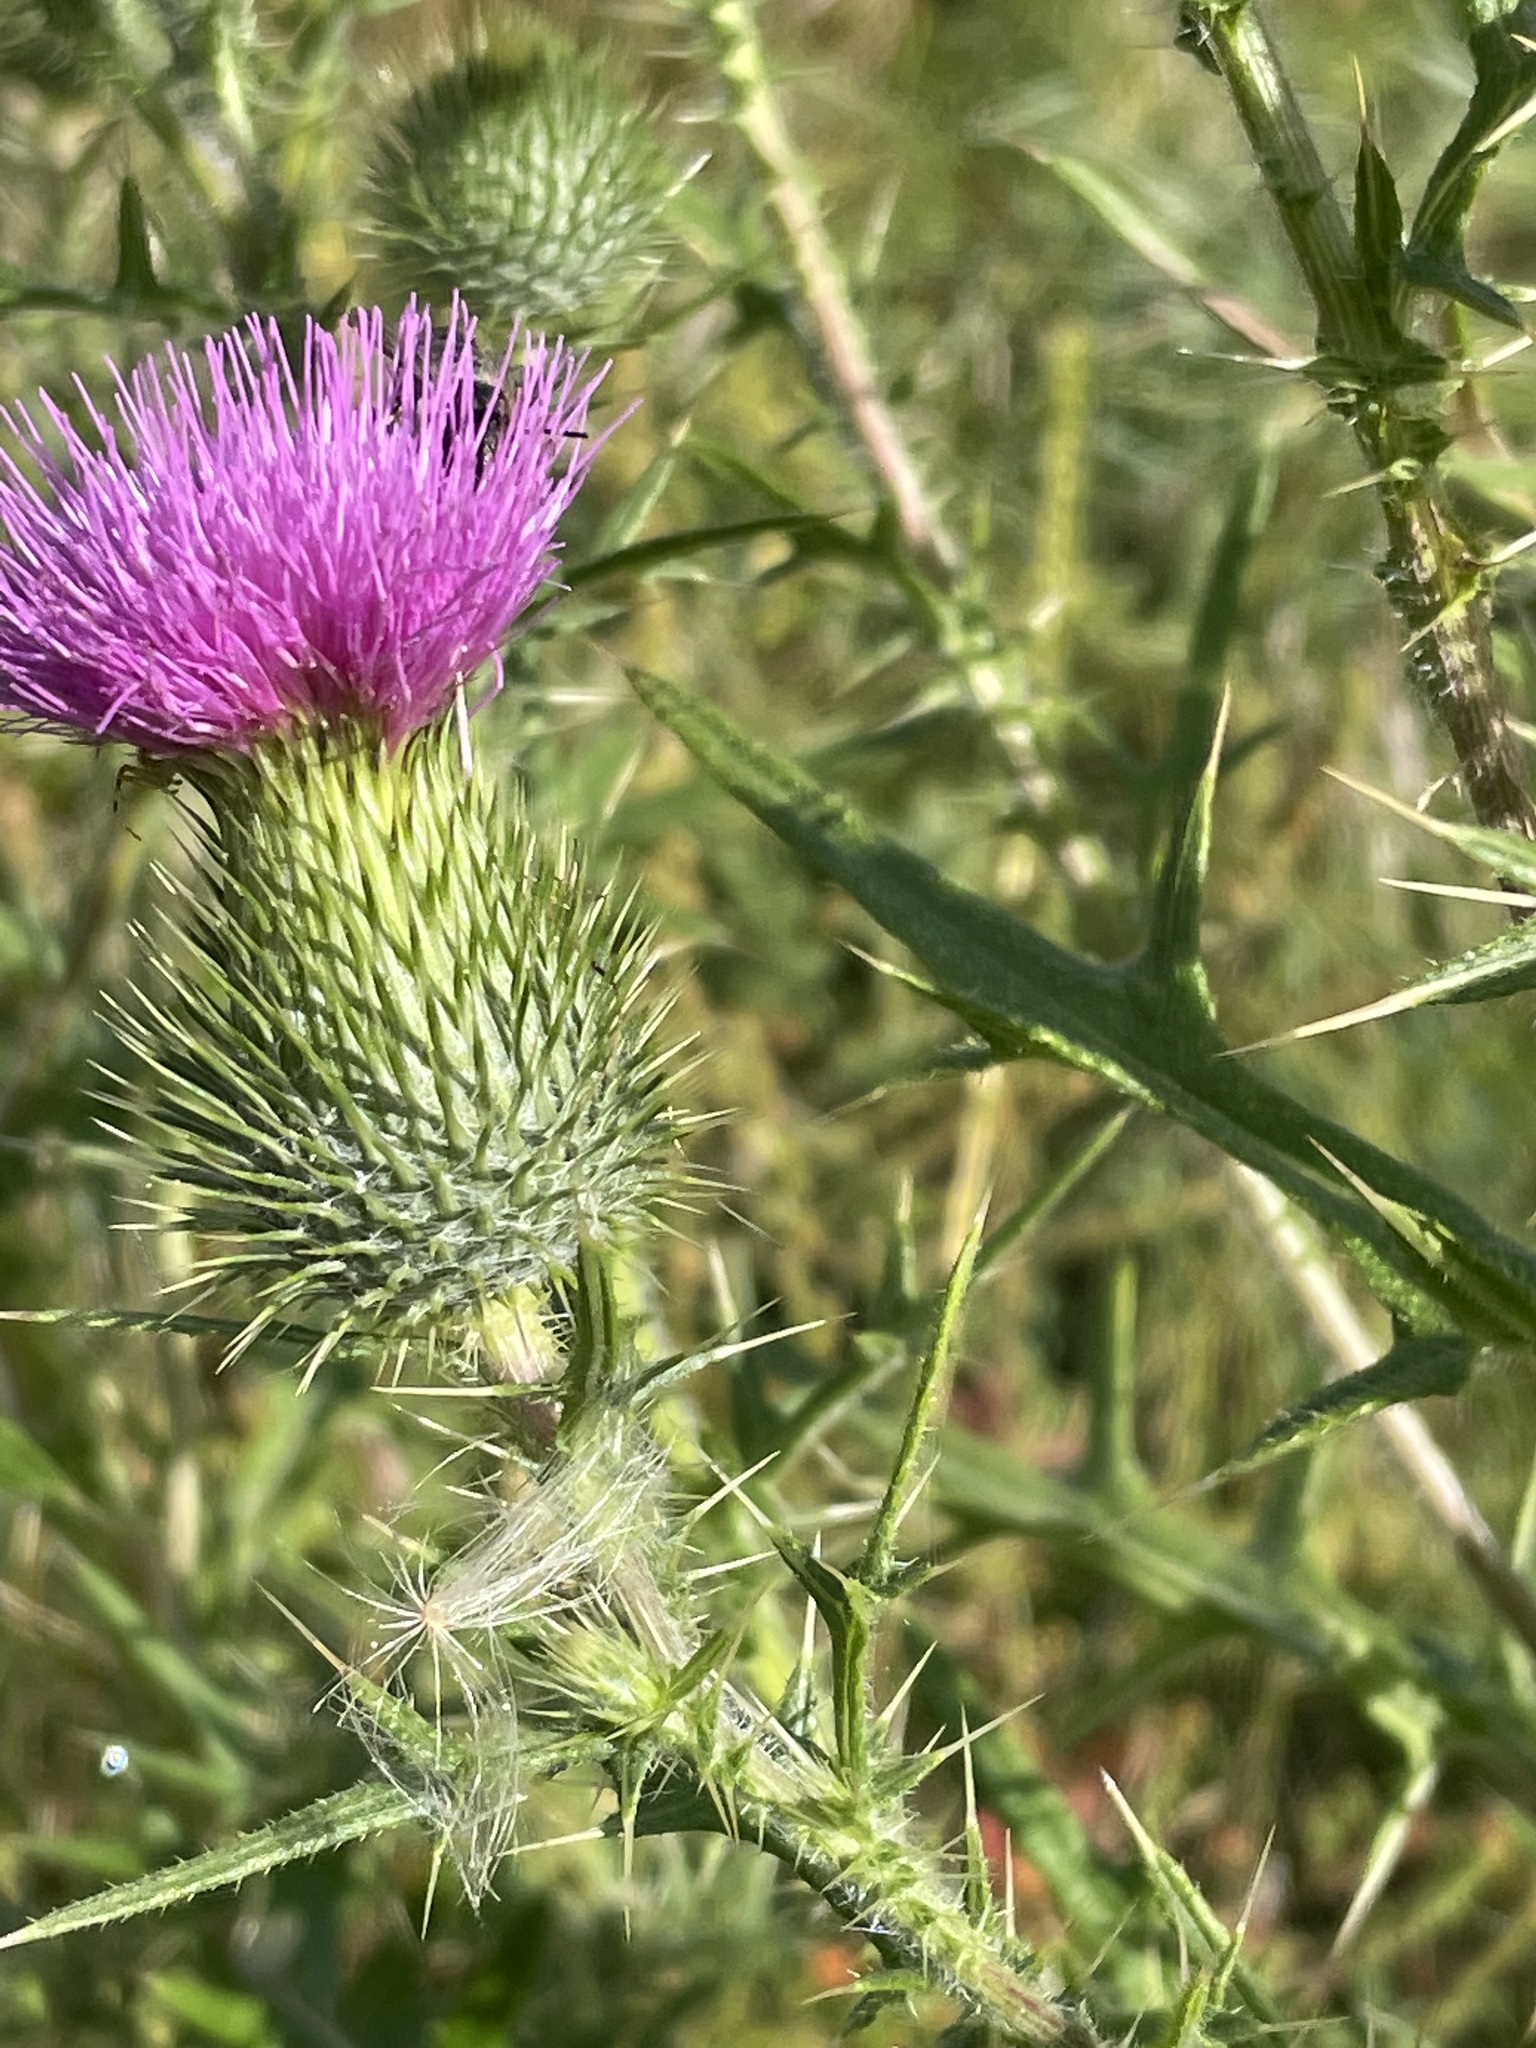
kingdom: Plantae
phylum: Tracheophyta
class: Magnoliopsida
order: Asterales
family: Asteraceae
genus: Cirsium
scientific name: Cirsium vulgare
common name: Bull thistle
